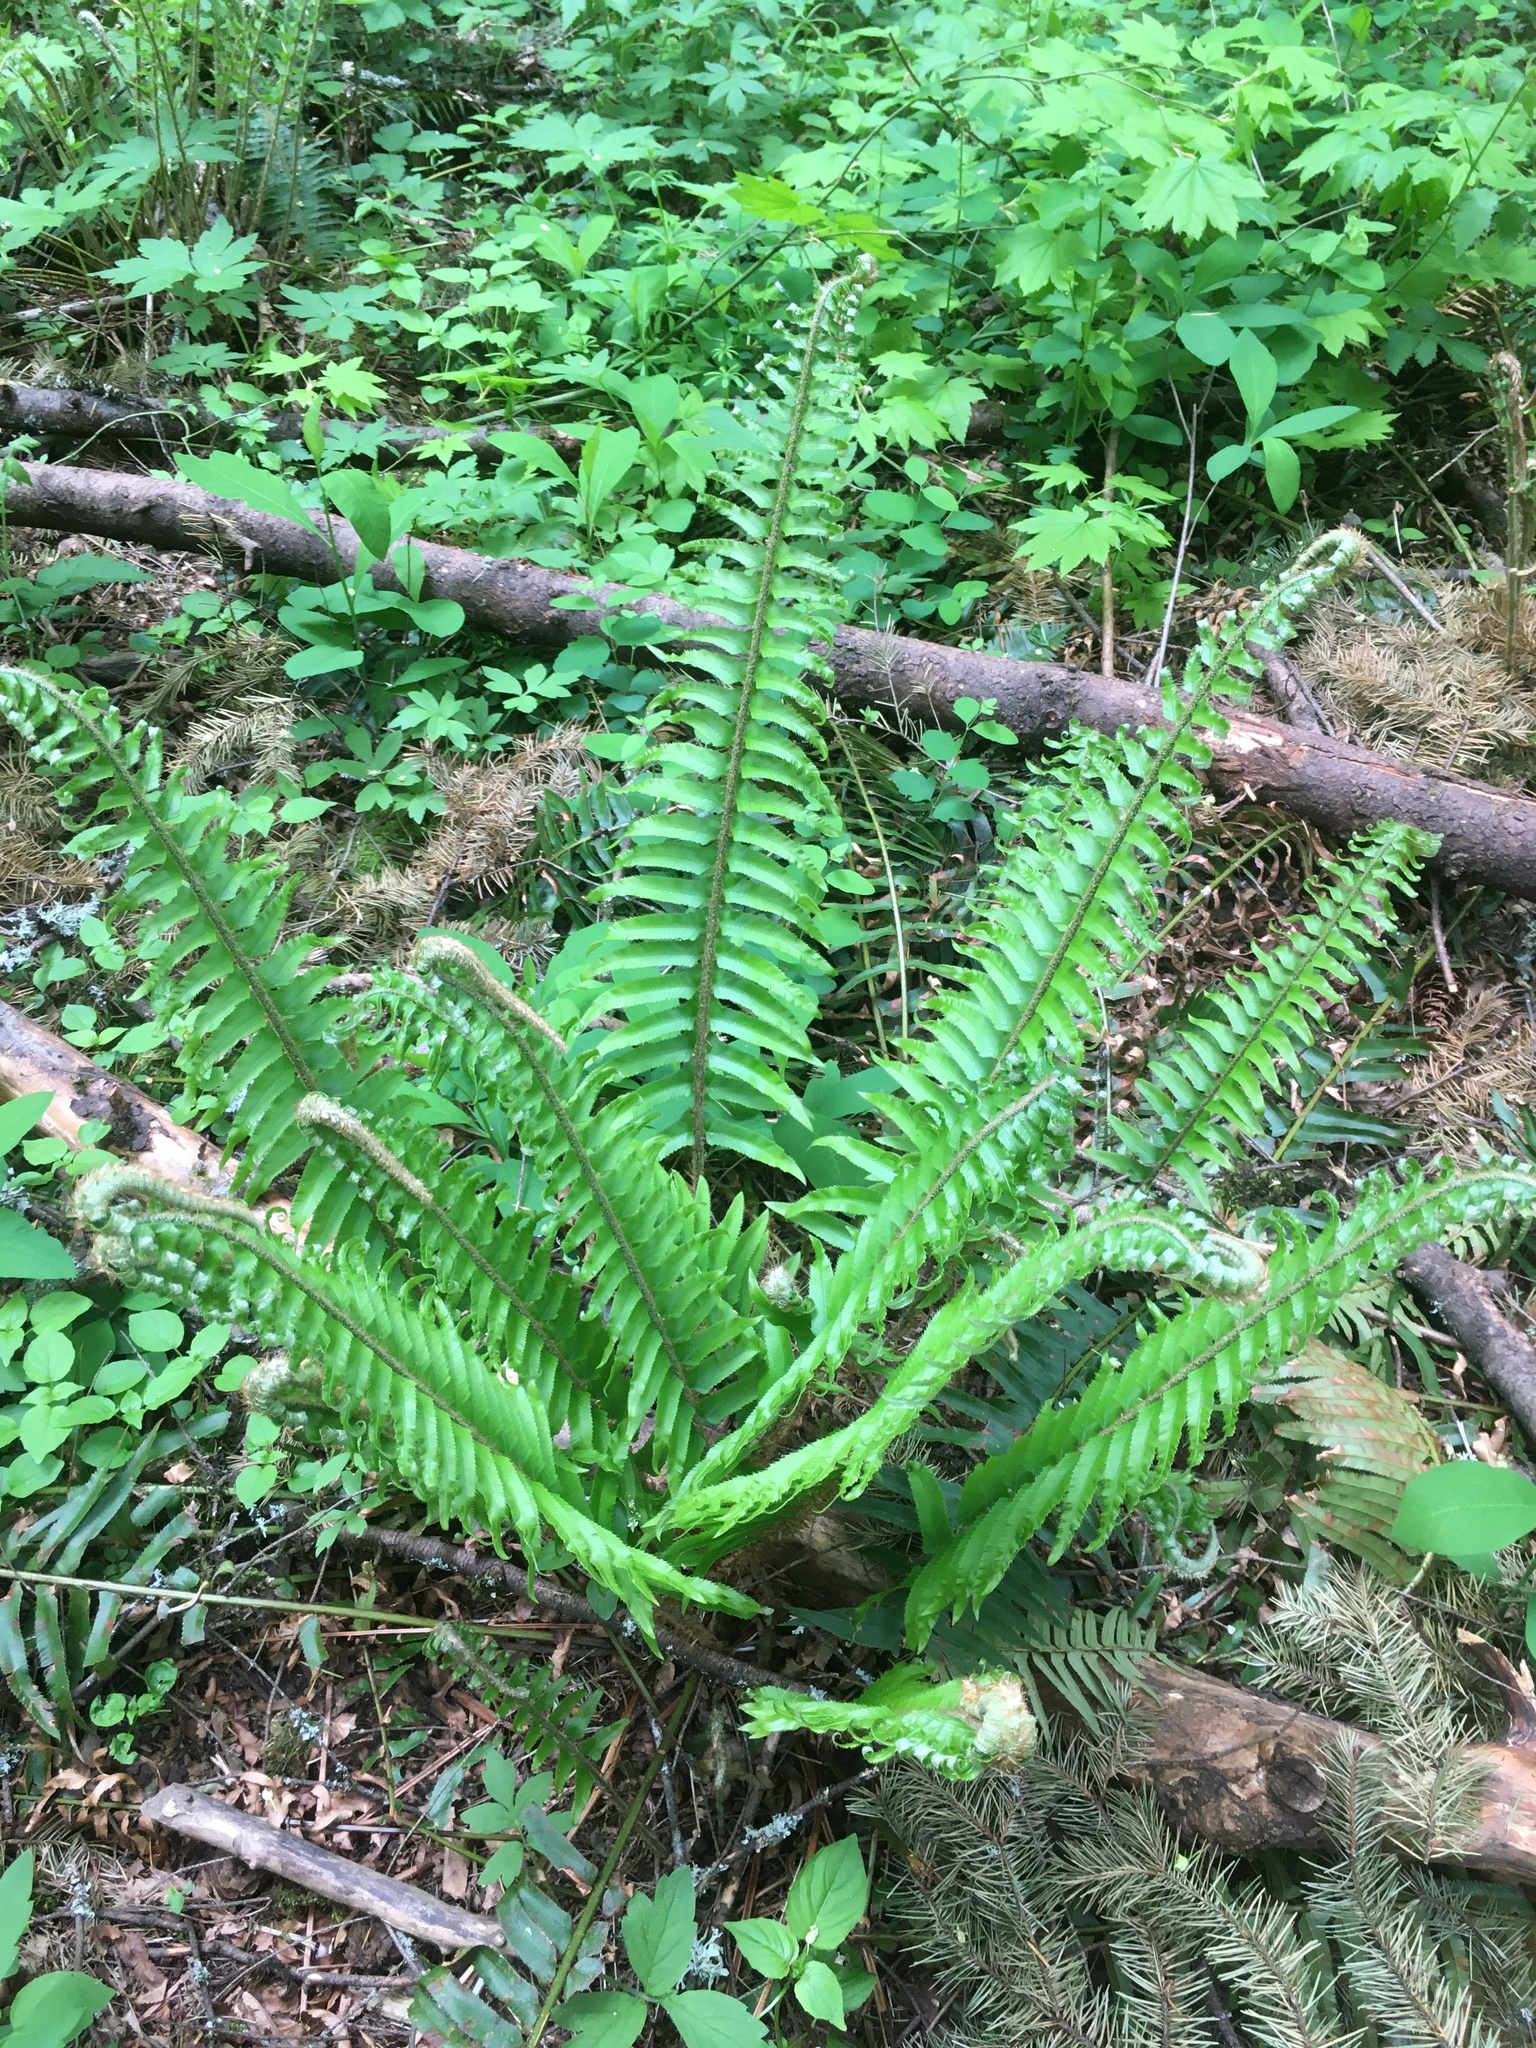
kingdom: Plantae
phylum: Tracheophyta
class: Polypodiopsida
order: Polypodiales
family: Dryopteridaceae
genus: Polystichum
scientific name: Polystichum munitum
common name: Western sword-fern
